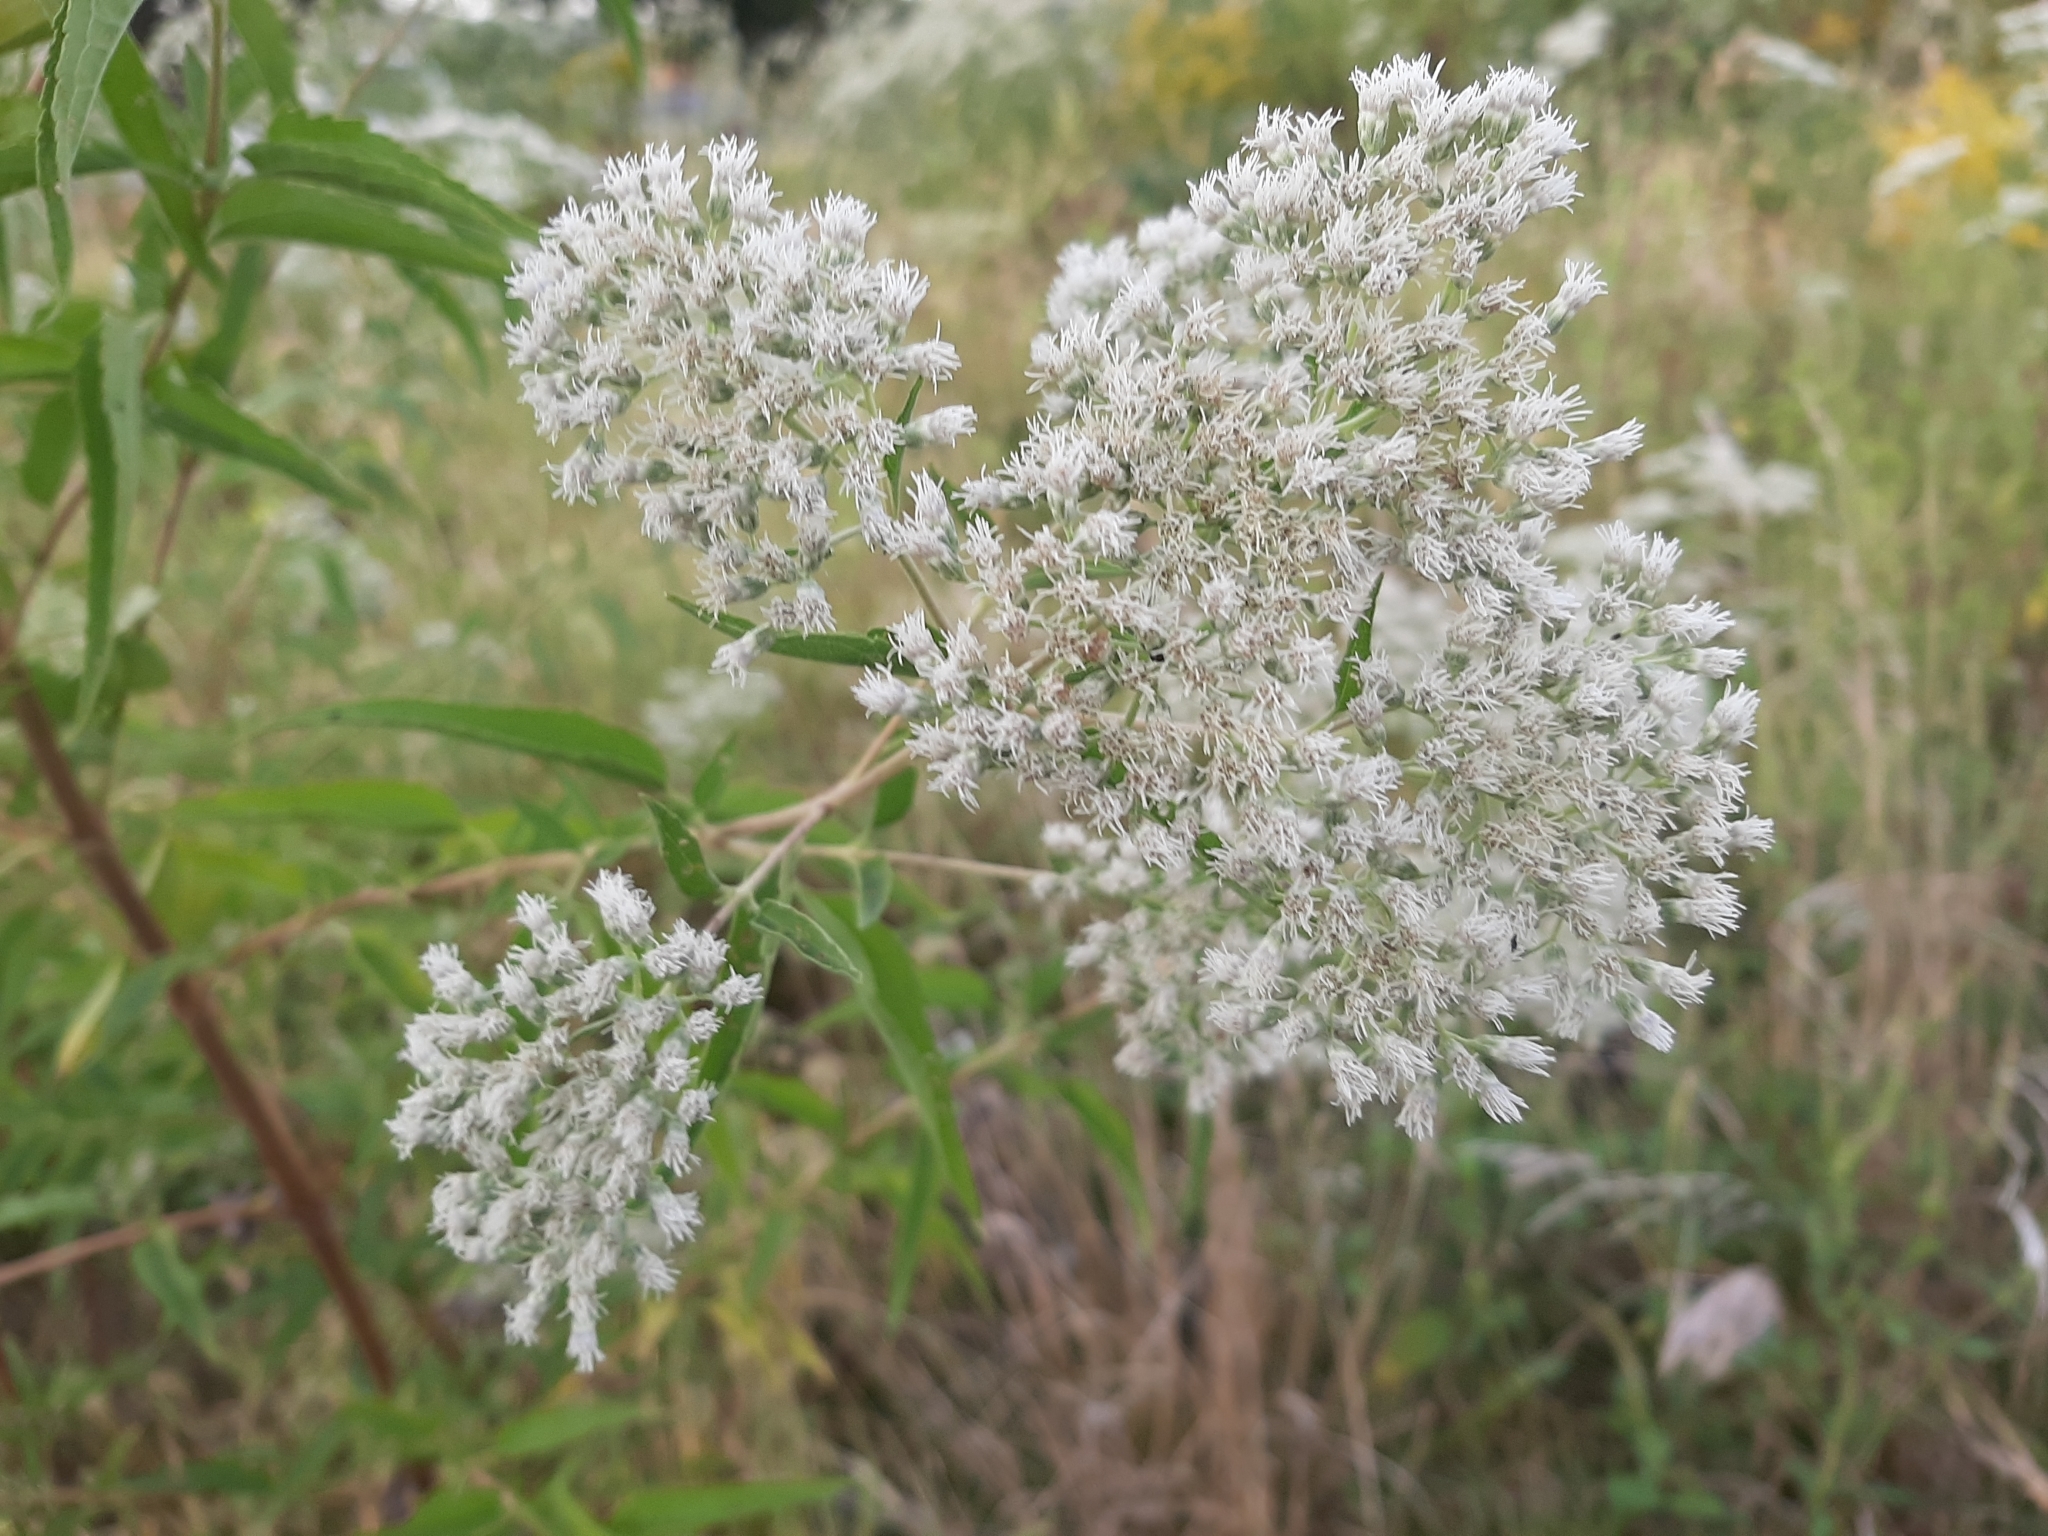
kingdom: Plantae
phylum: Tracheophyta
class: Magnoliopsida
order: Asterales
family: Asteraceae
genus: Eupatorium
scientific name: Eupatorium serotinum
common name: Late boneset
